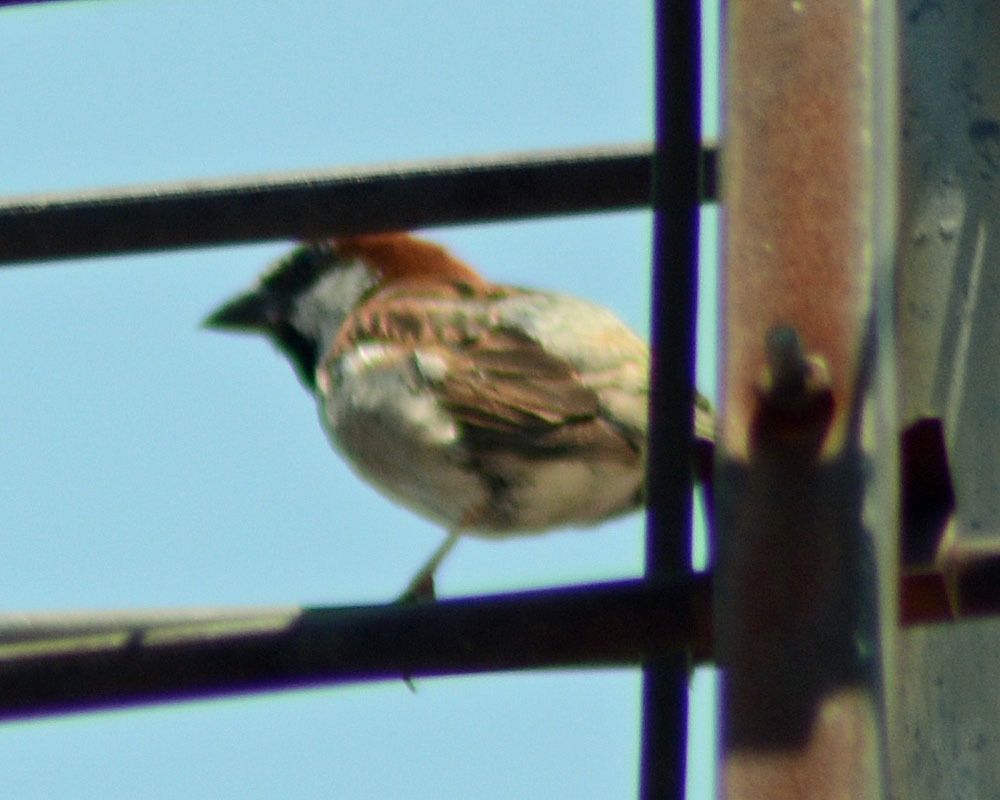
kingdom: Animalia
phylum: Chordata
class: Aves
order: Passeriformes
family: Passeridae
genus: Passer
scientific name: Passer domesticus
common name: House sparrow
